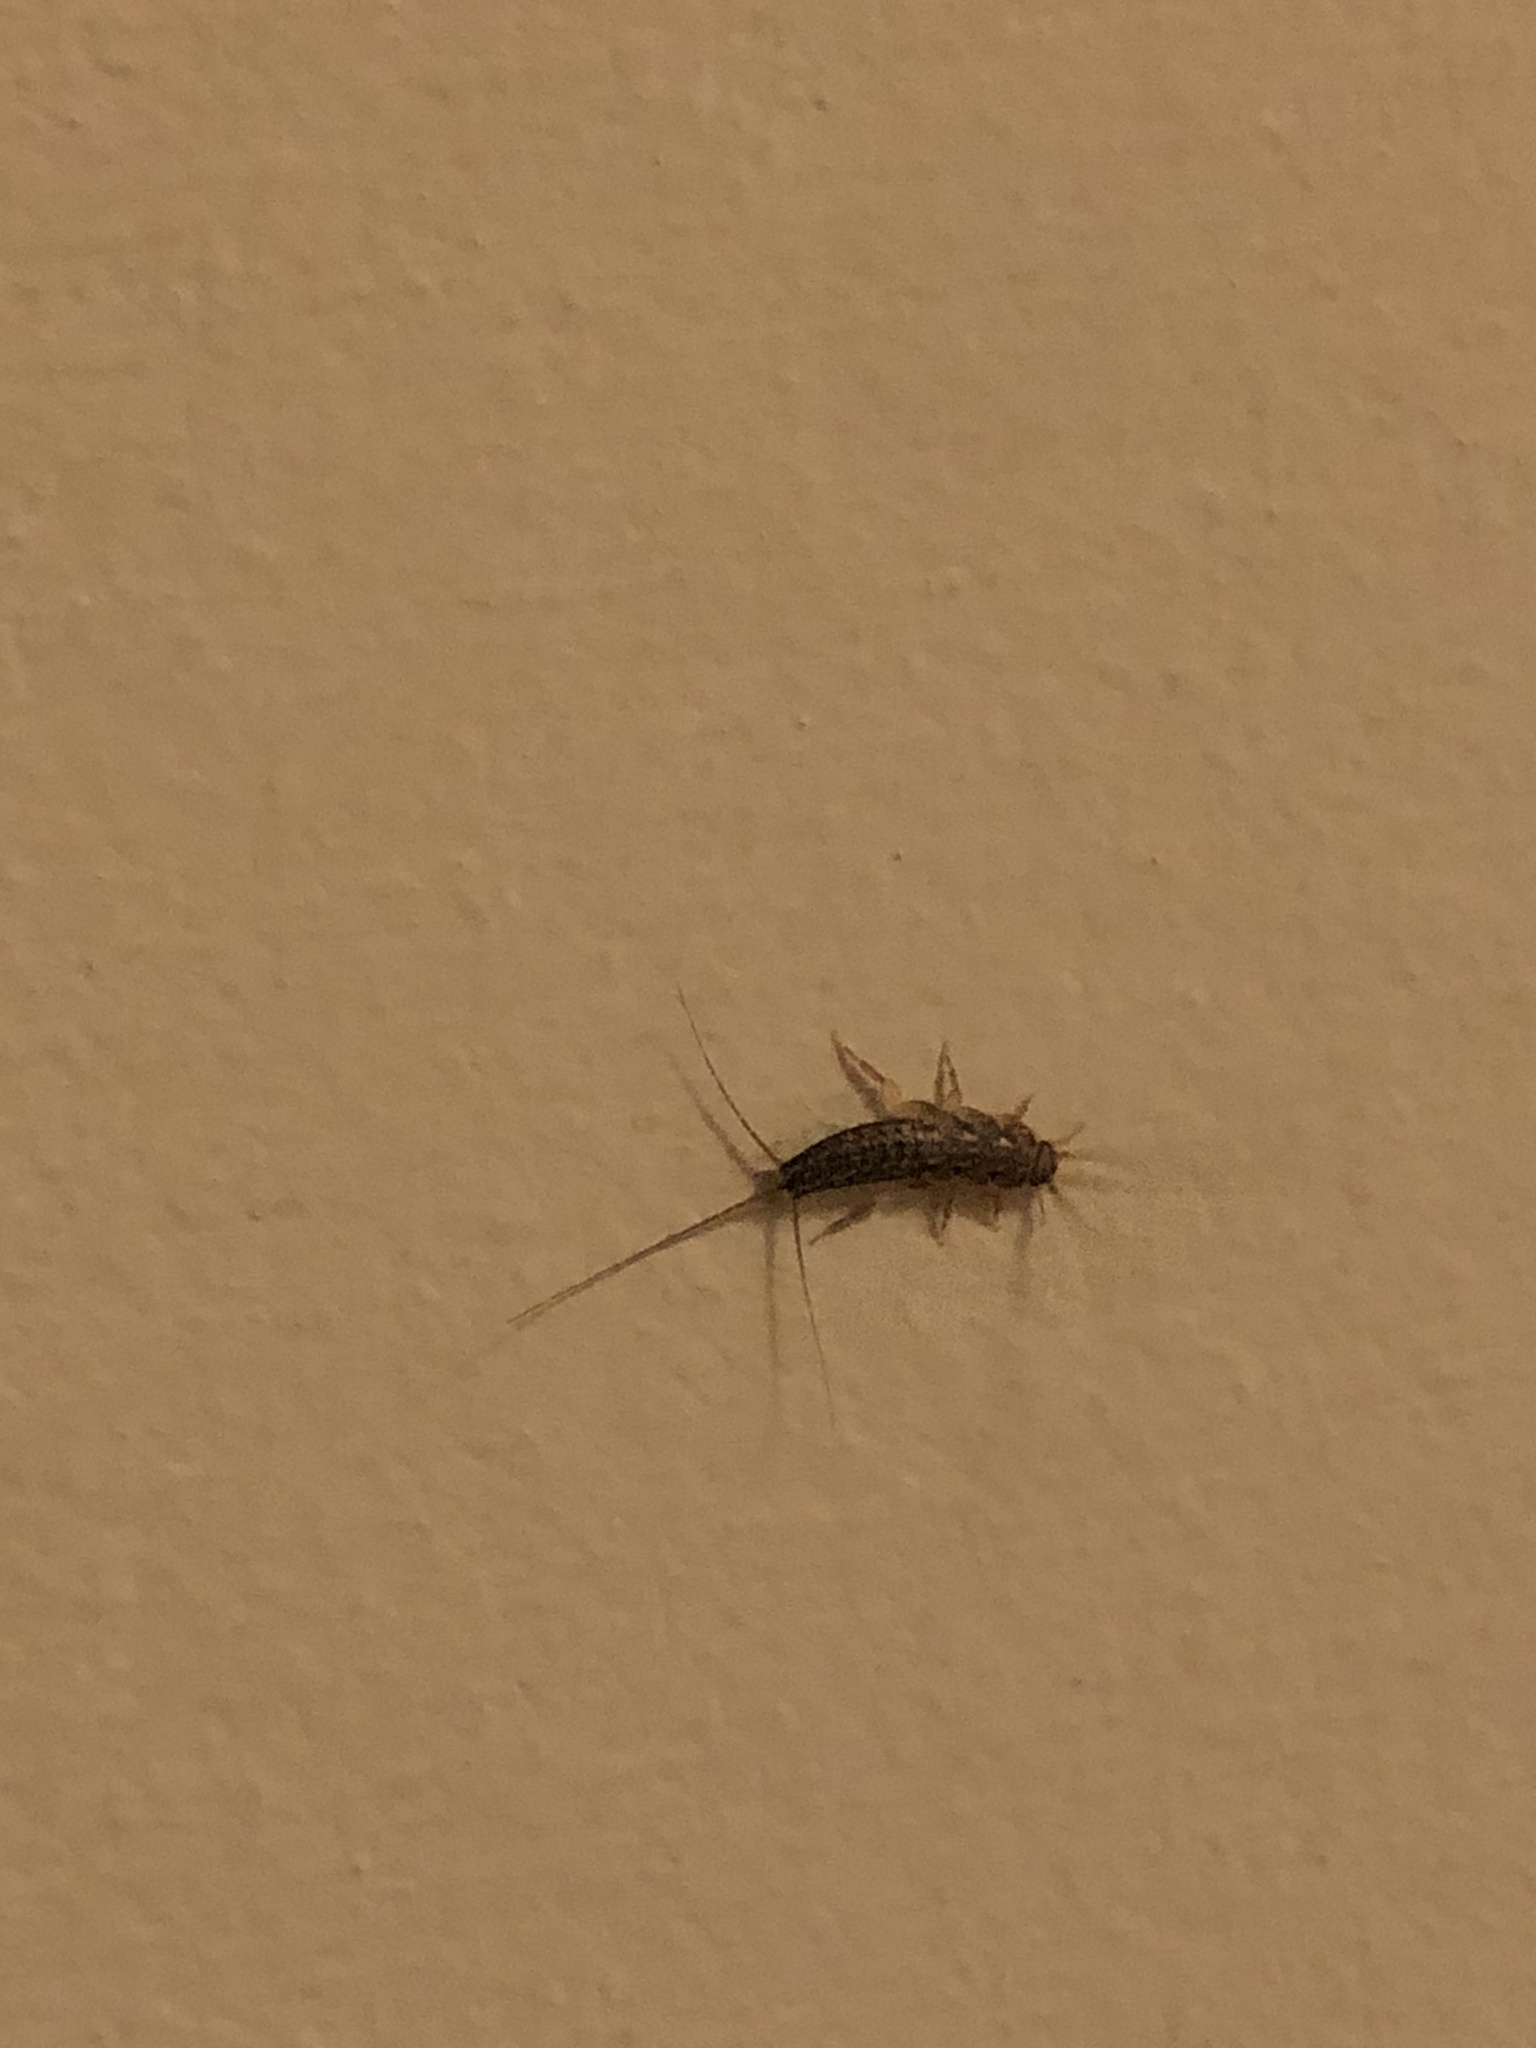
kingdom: Animalia
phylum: Arthropoda
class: Insecta
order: Zygentoma
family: Lepismatidae
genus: Ctenolepisma
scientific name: Ctenolepisma lineata
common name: Four-lined silverfish
